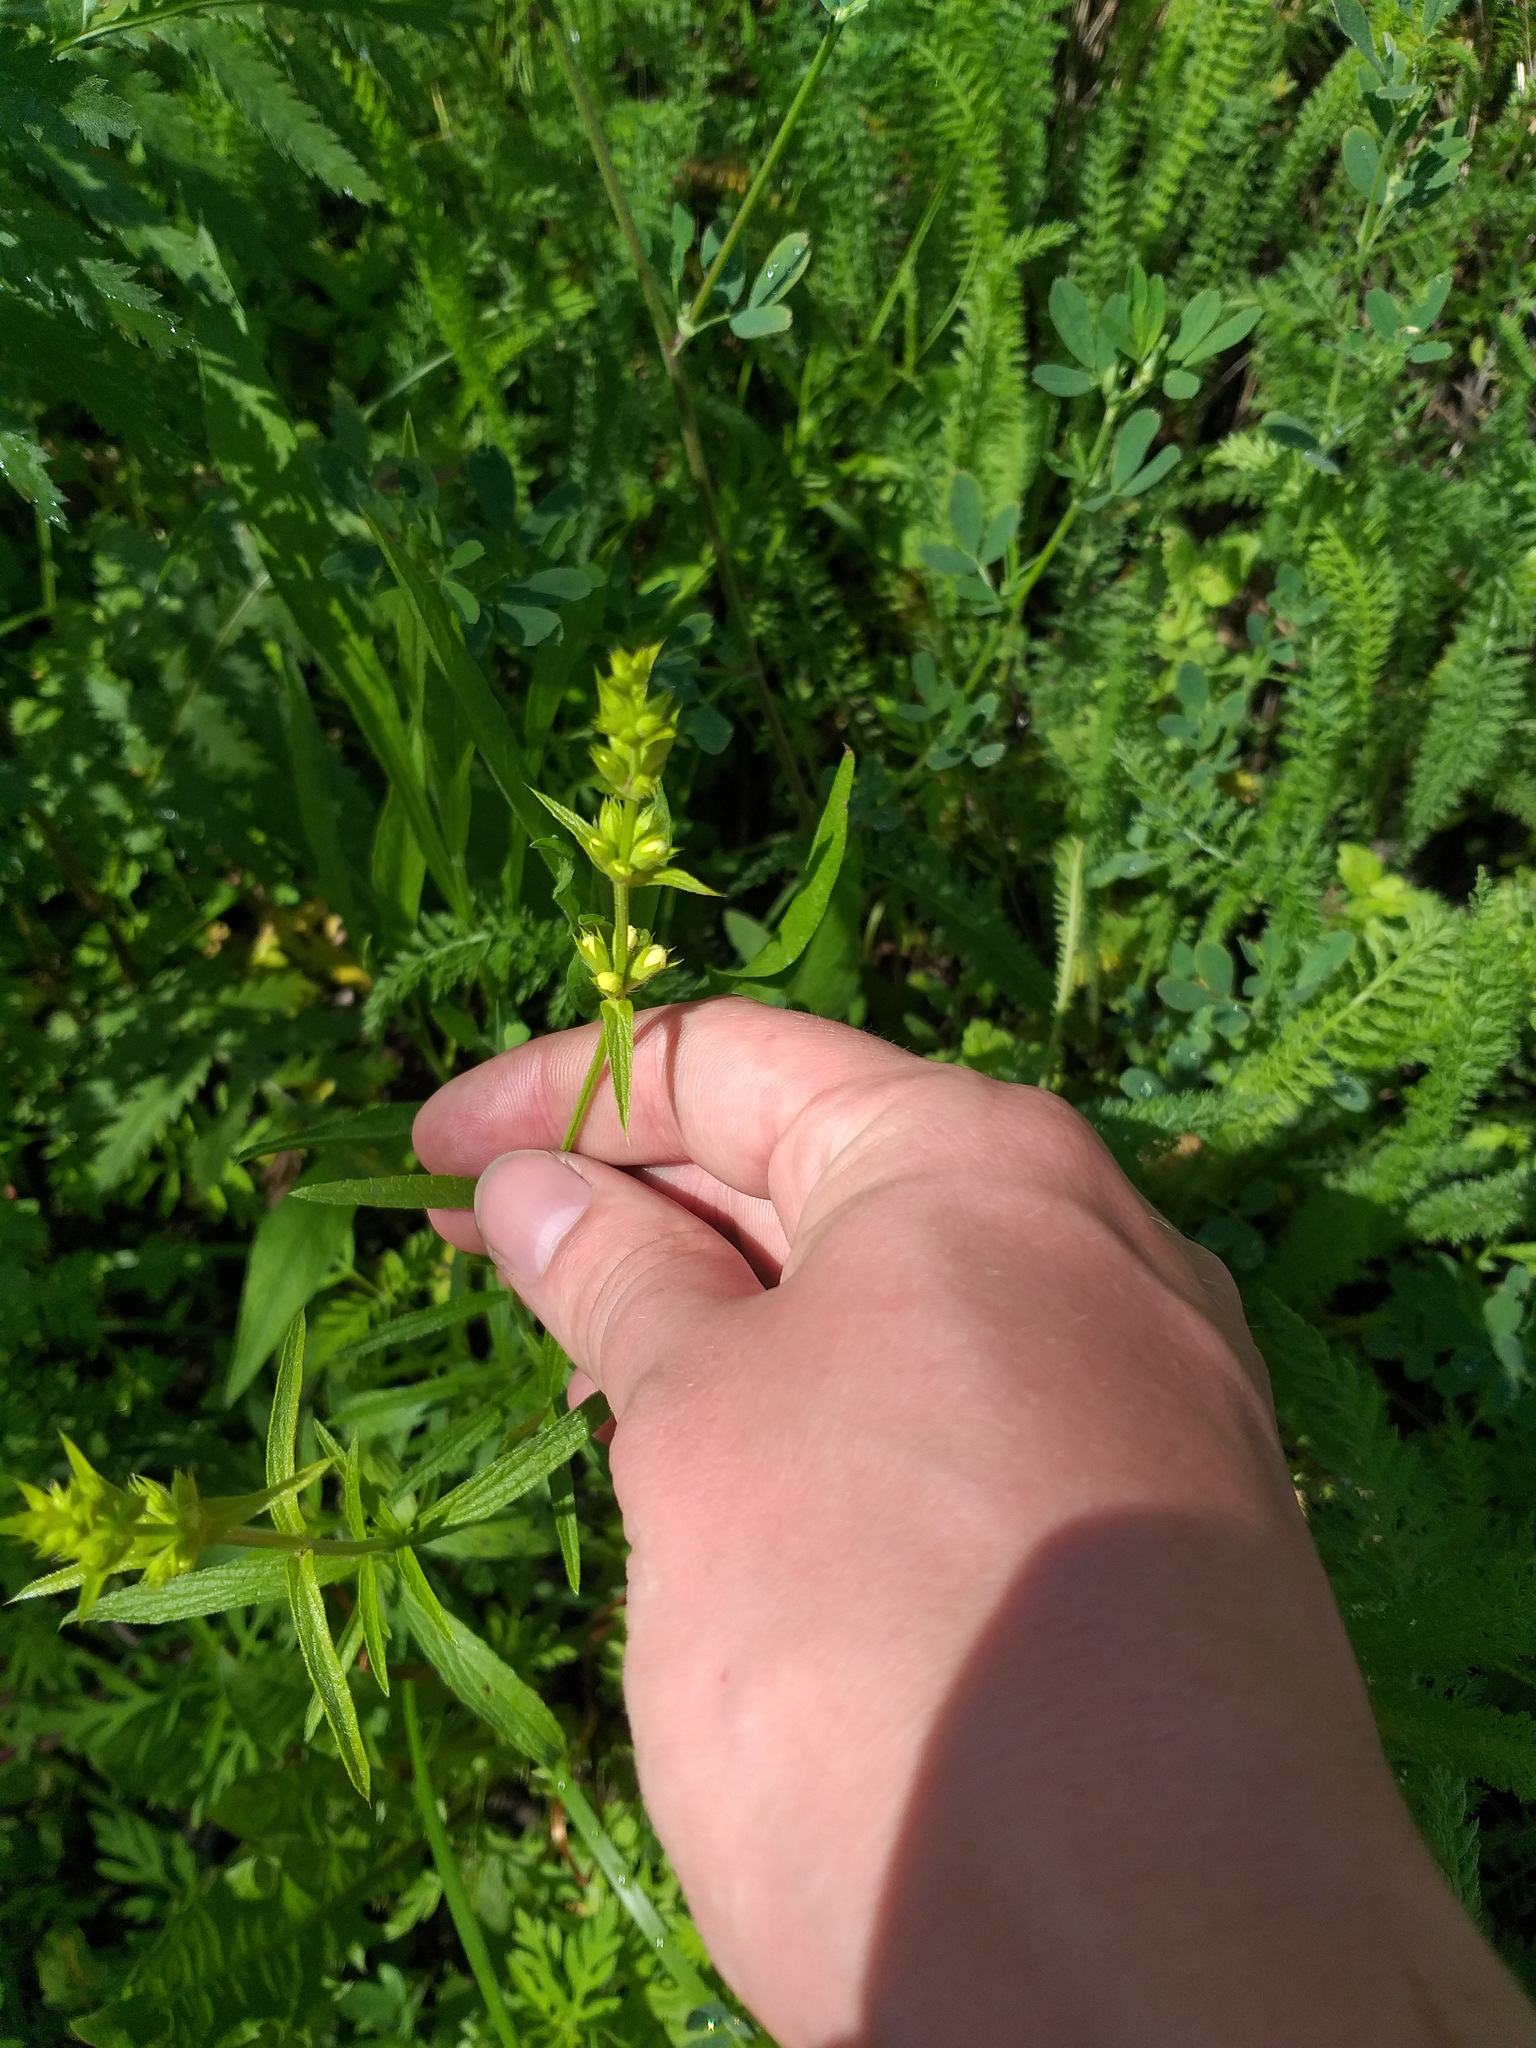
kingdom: Plantae
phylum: Tracheophyta
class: Magnoliopsida
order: Lamiales
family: Lamiaceae
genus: Stachys
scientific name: Stachys recta
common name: Perennial yellow-woundwort
